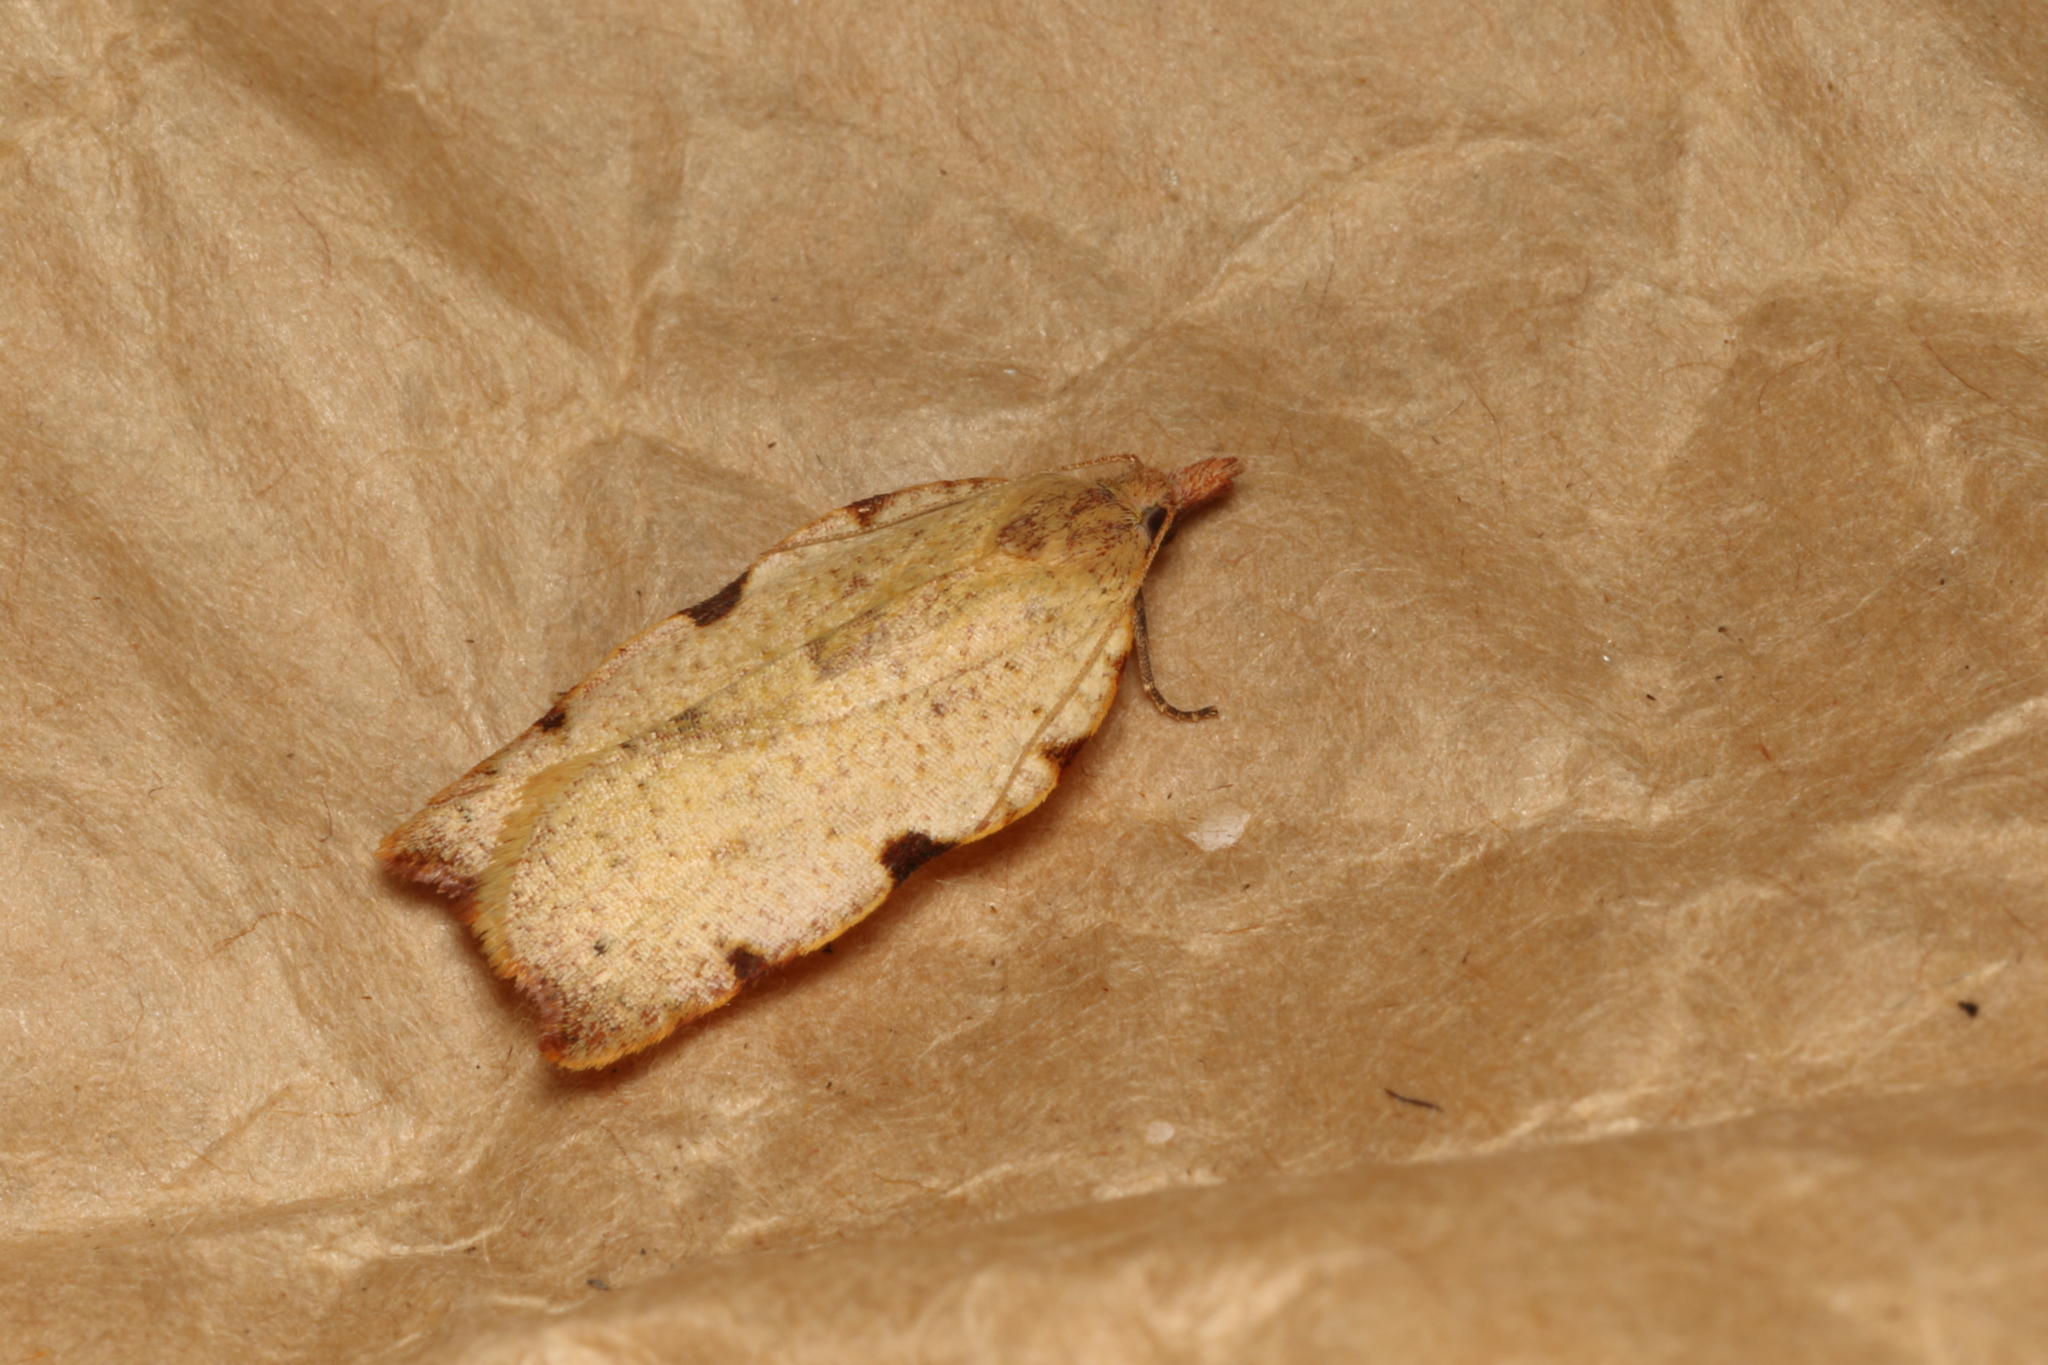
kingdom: Animalia
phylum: Arthropoda
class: Insecta
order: Lepidoptera
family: Tortricidae
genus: Apoctena
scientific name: Apoctena flavescens
